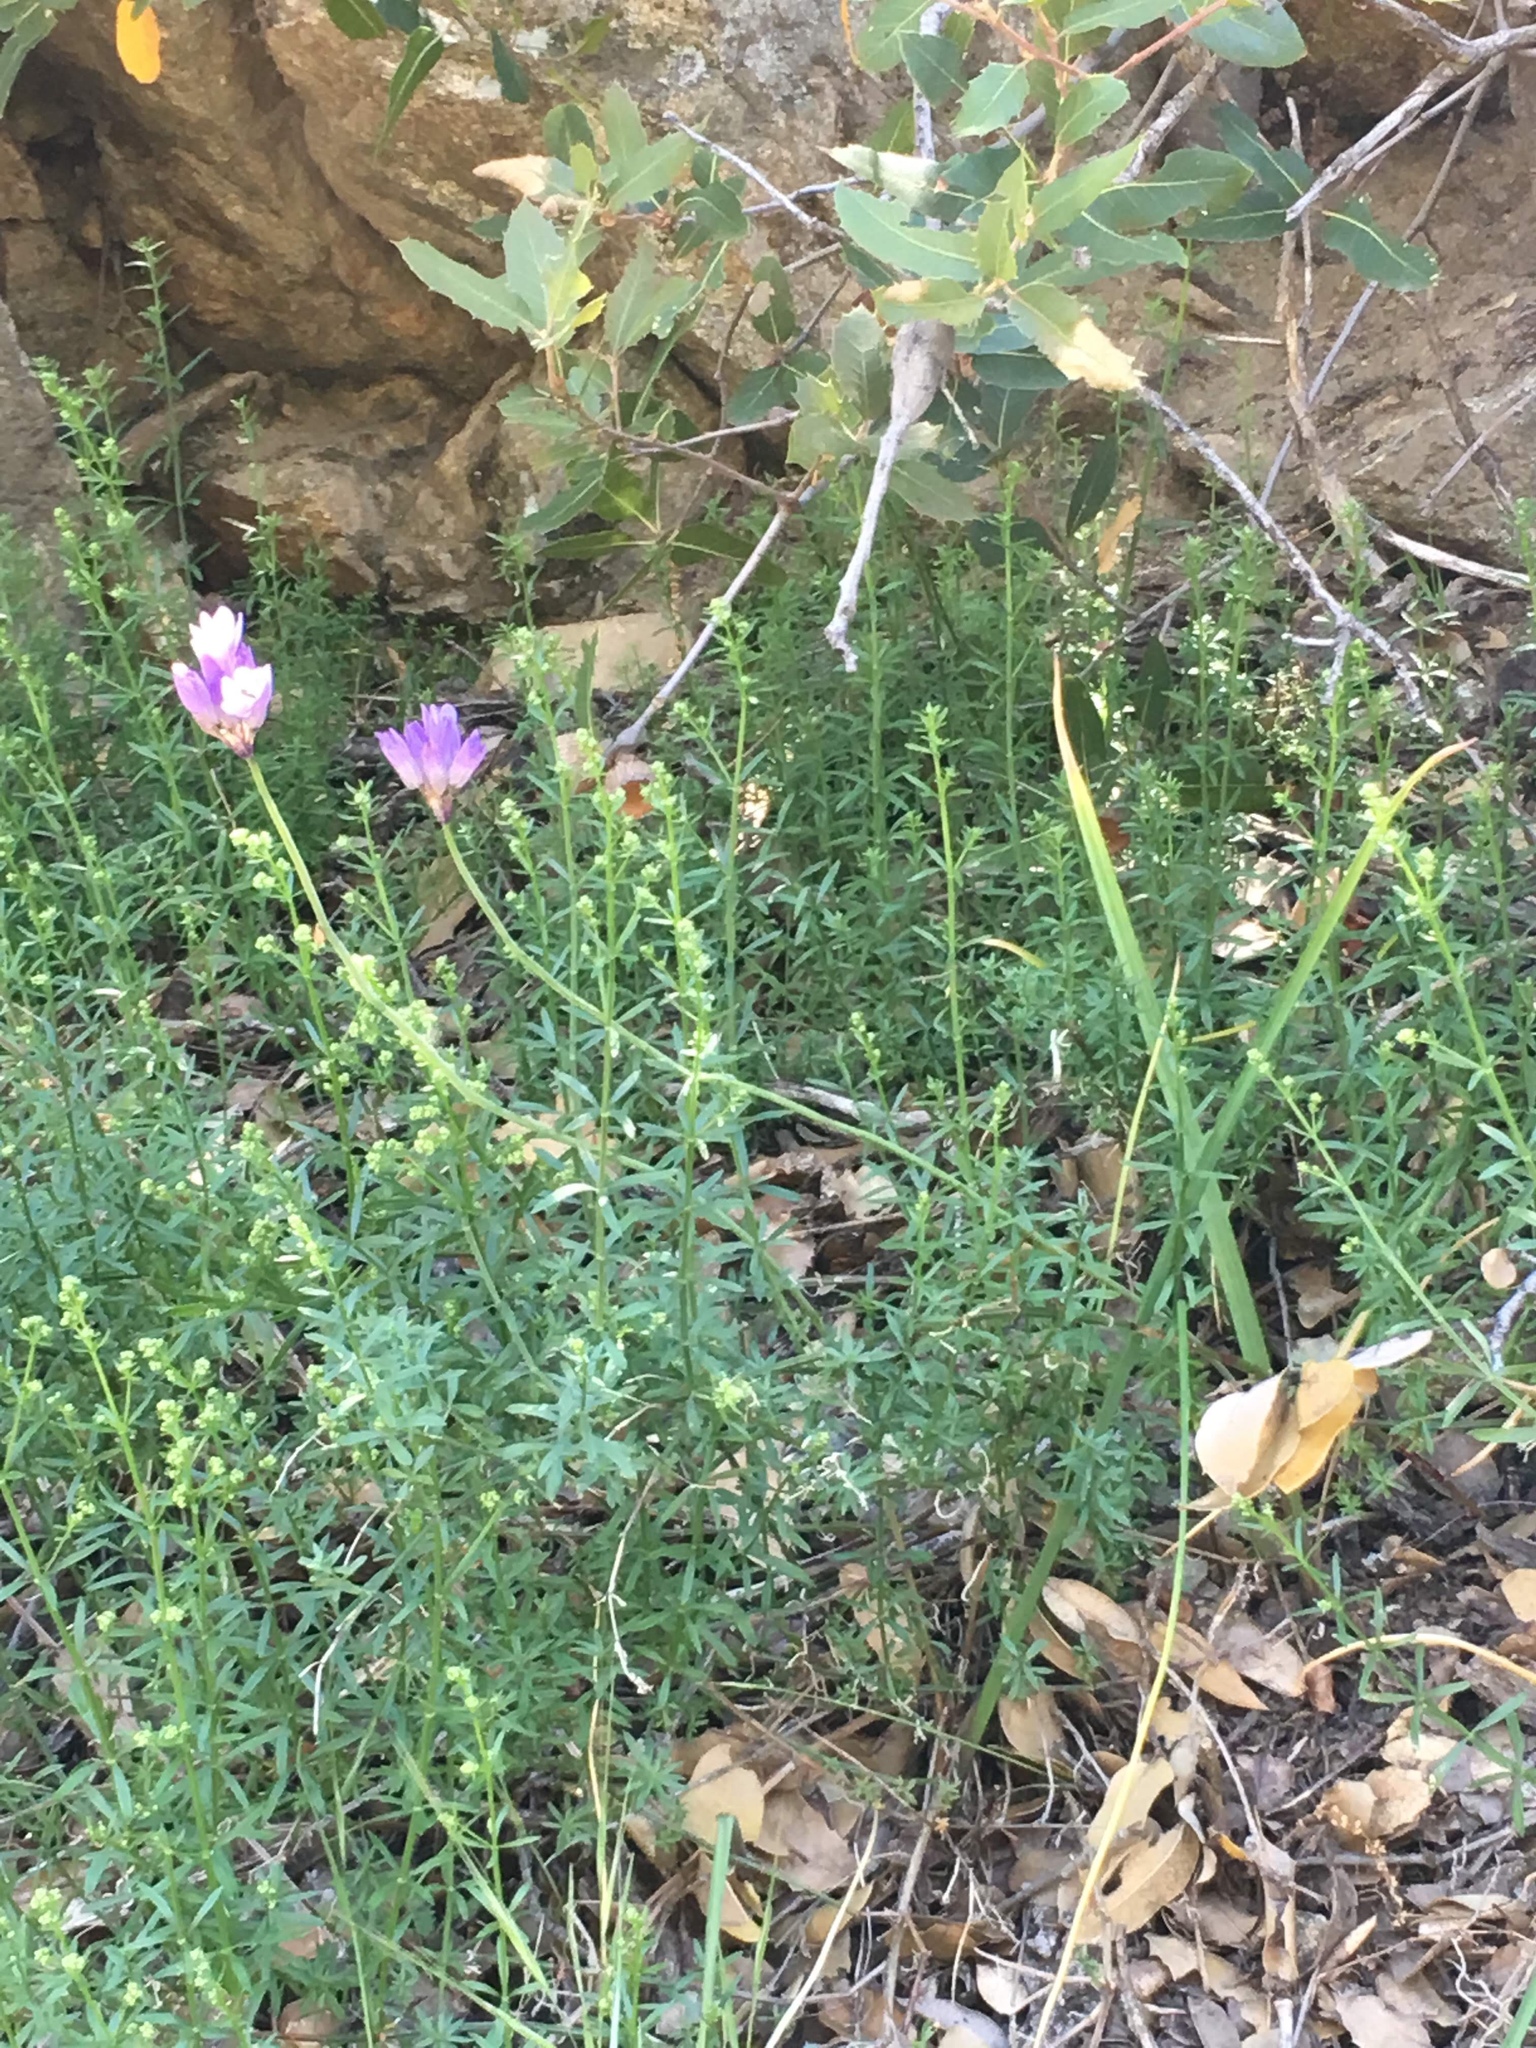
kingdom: Plantae
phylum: Tracheophyta
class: Liliopsida
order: Asparagales
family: Asparagaceae
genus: Dipterostemon
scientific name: Dipterostemon capitatus
